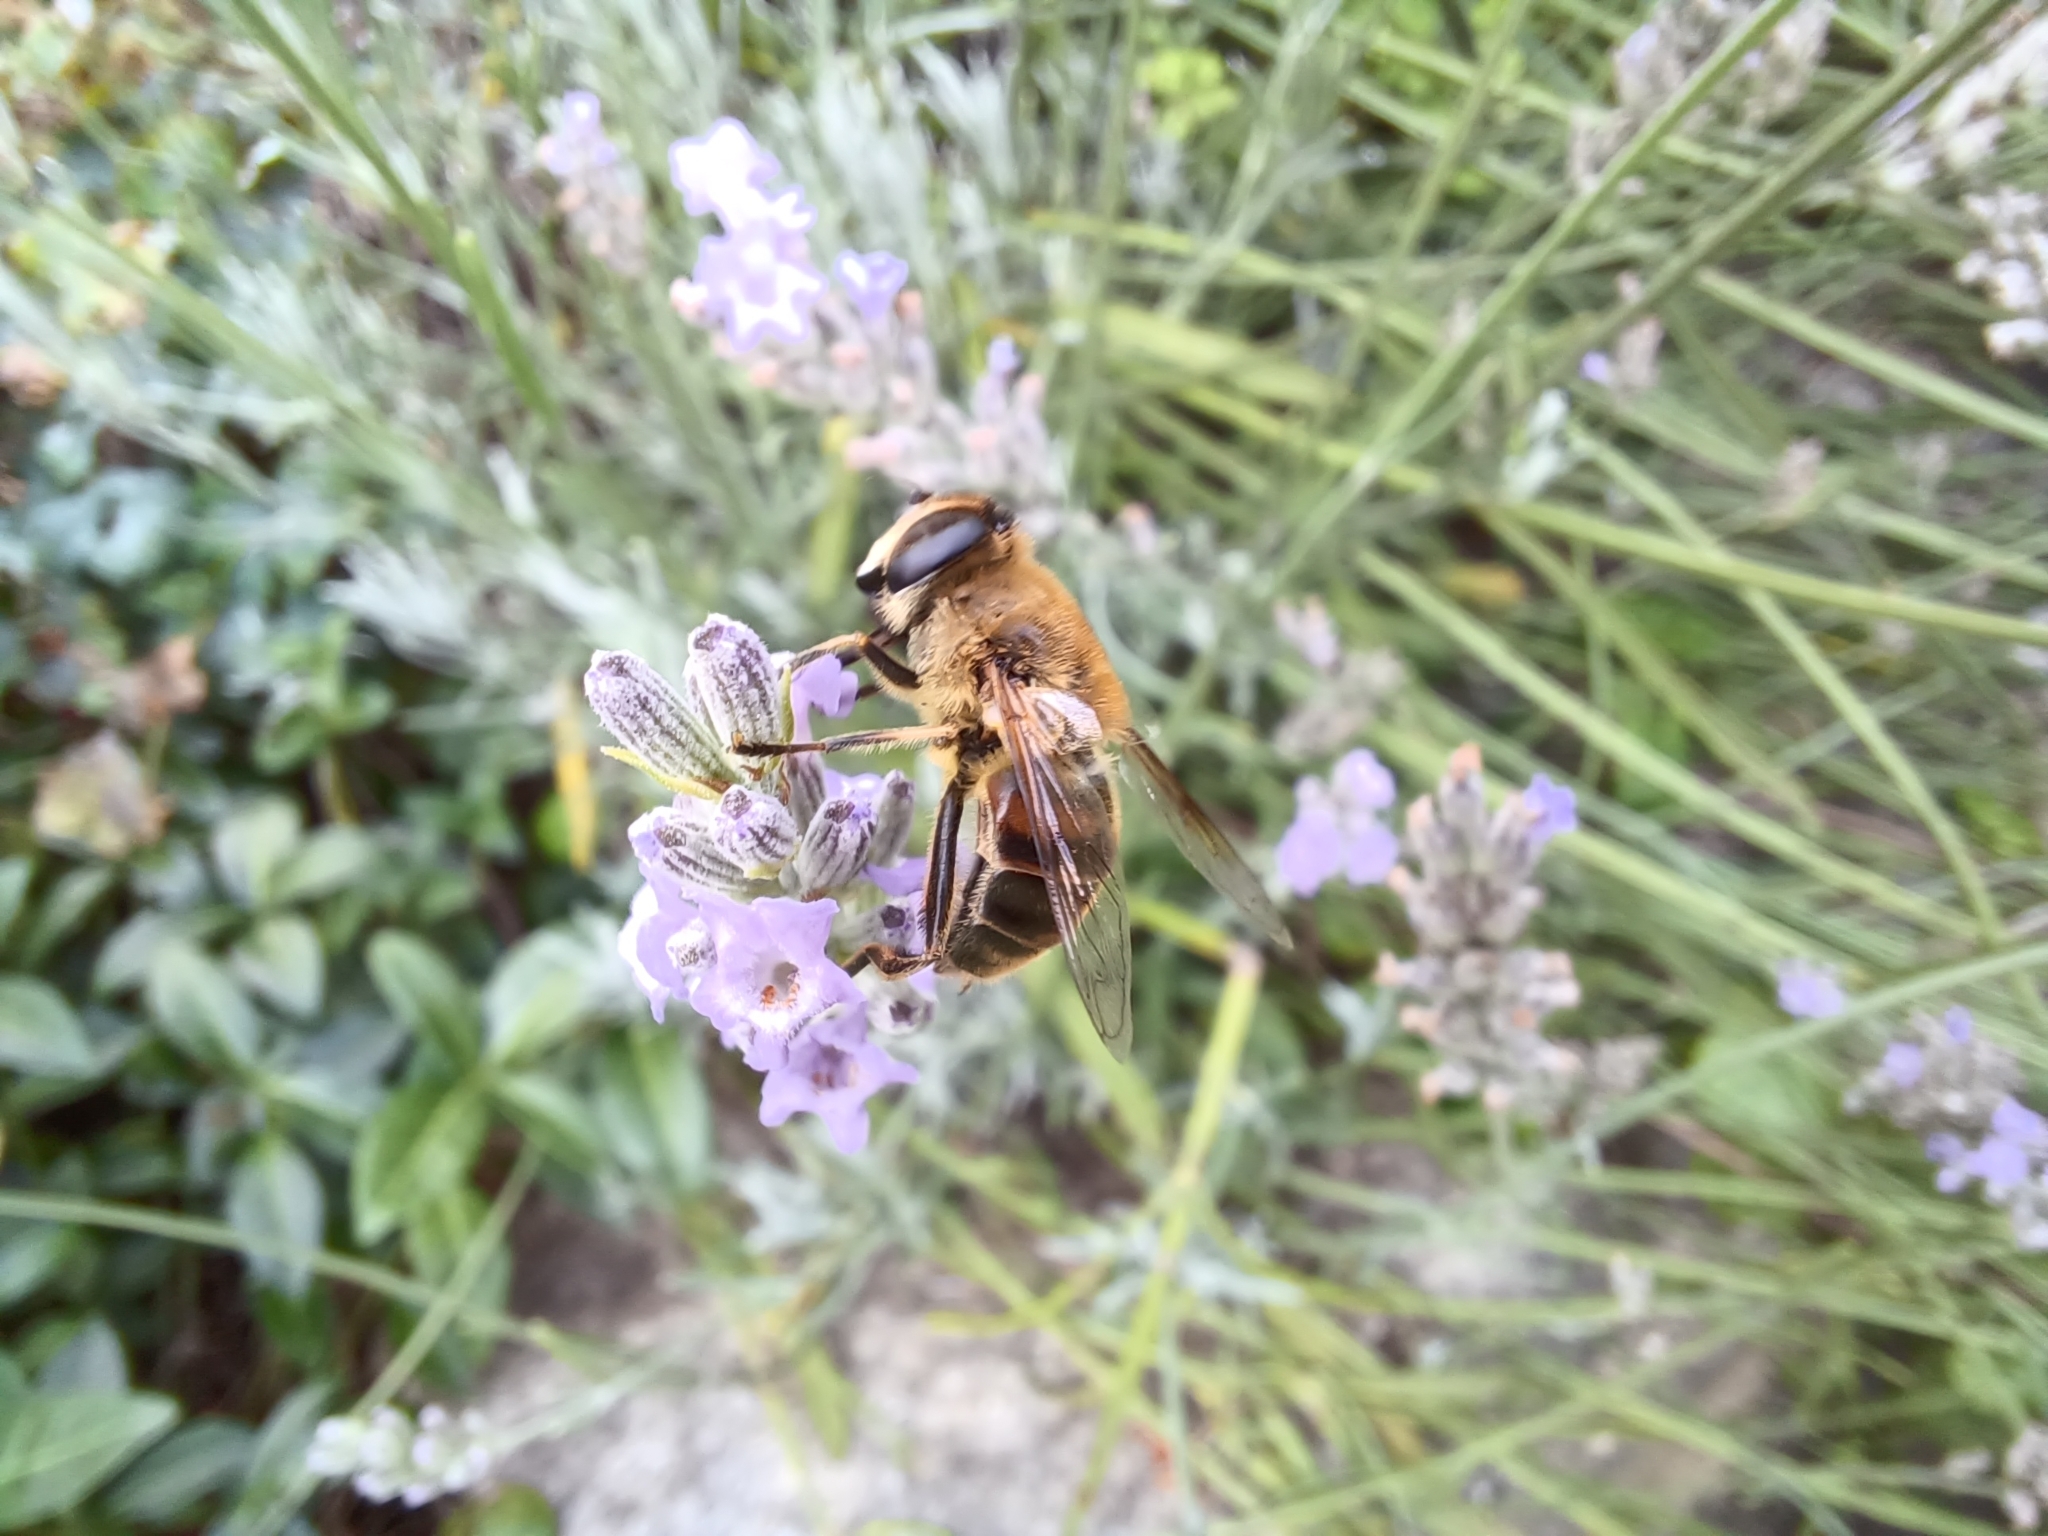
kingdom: Animalia
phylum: Arthropoda
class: Insecta
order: Diptera
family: Syrphidae
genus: Eristalis
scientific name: Eristalis tenax
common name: Drone fly
